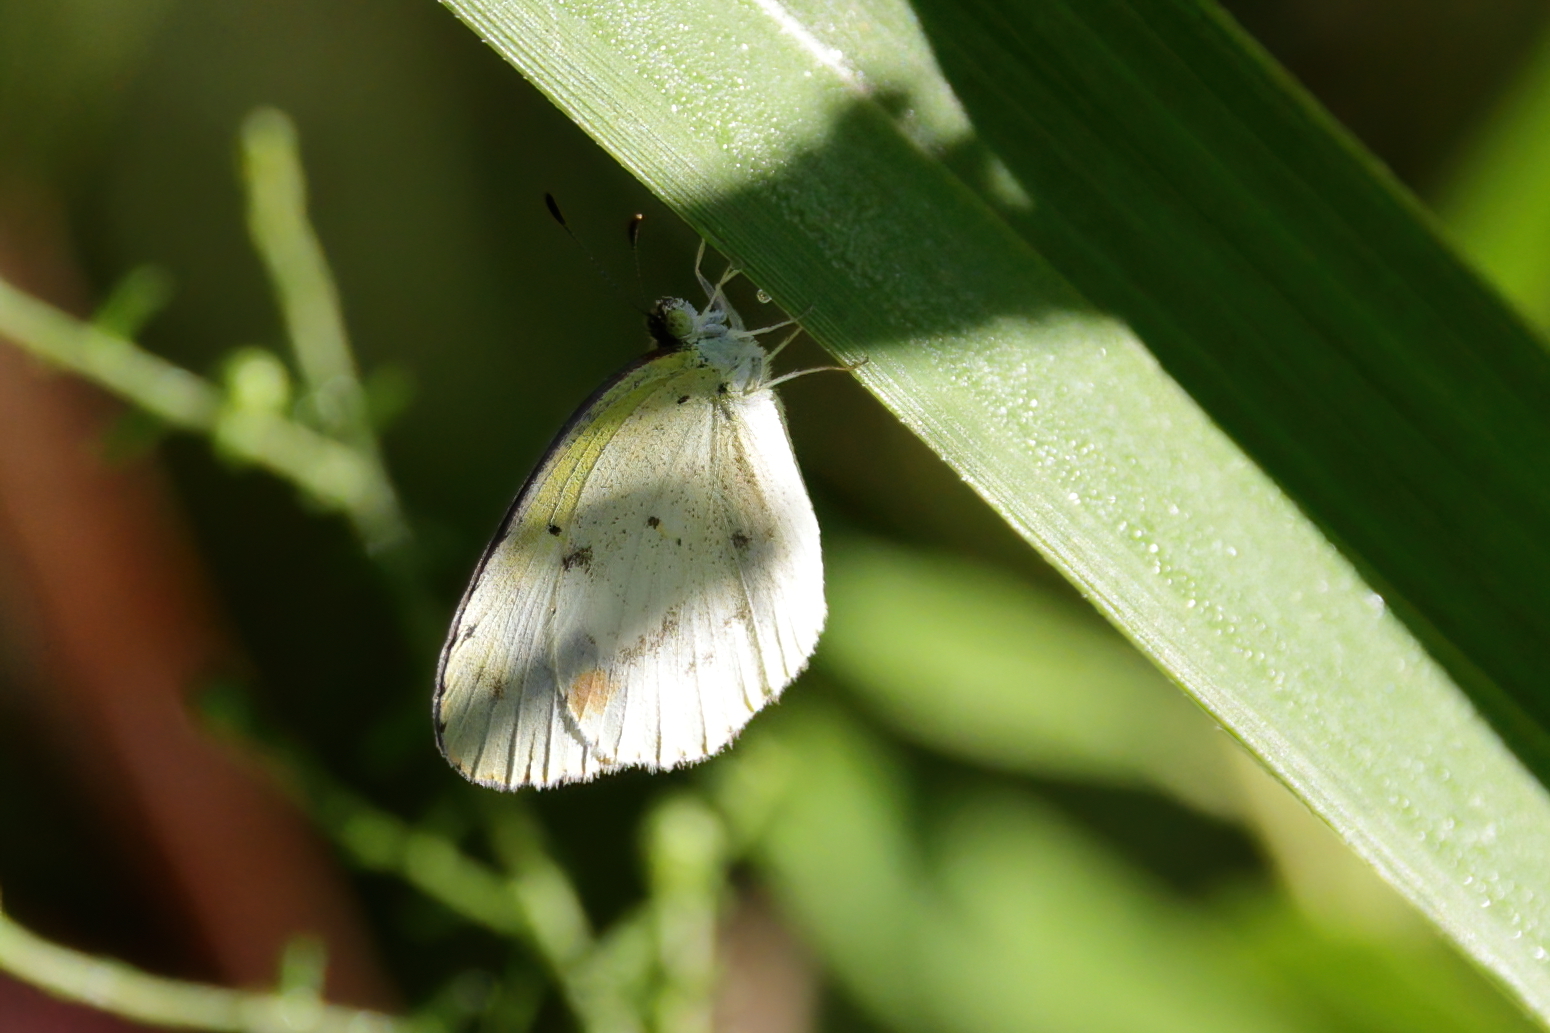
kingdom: Animalia
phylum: Arthropoda
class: Insecta
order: Lepidoptera
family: Pieridae
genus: Pyrisitia
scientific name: Pyrisitia lisa
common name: Little yellow
